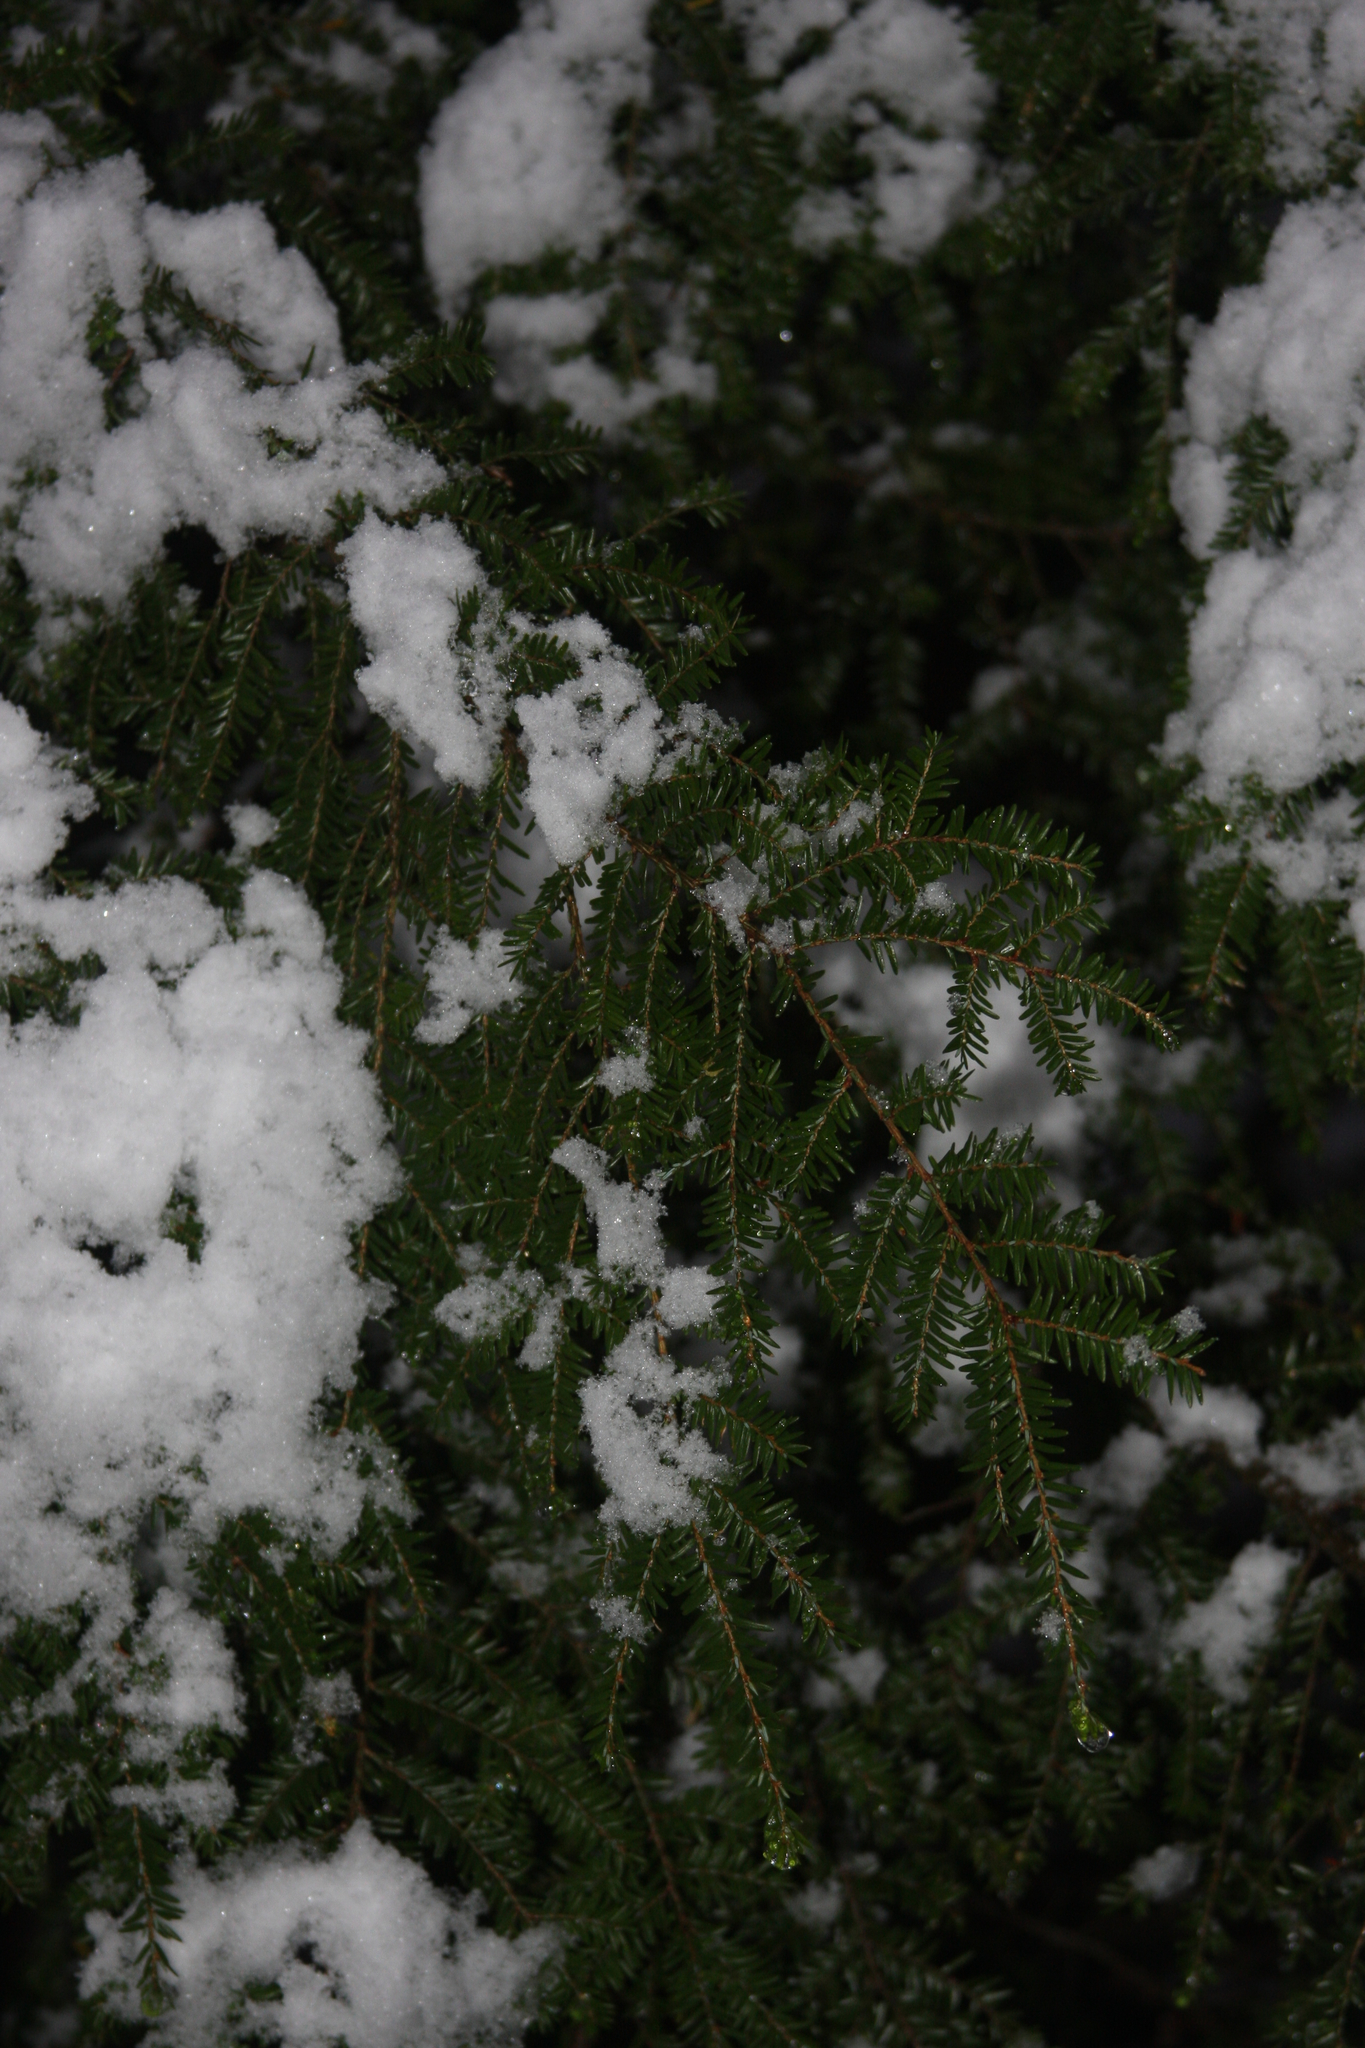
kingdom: Plantae
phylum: Tracheophyta
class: Pinopsida
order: Pinales
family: Pinaceae
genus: Tsuga
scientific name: Tsuga canadensis
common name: Eastern hemlock
